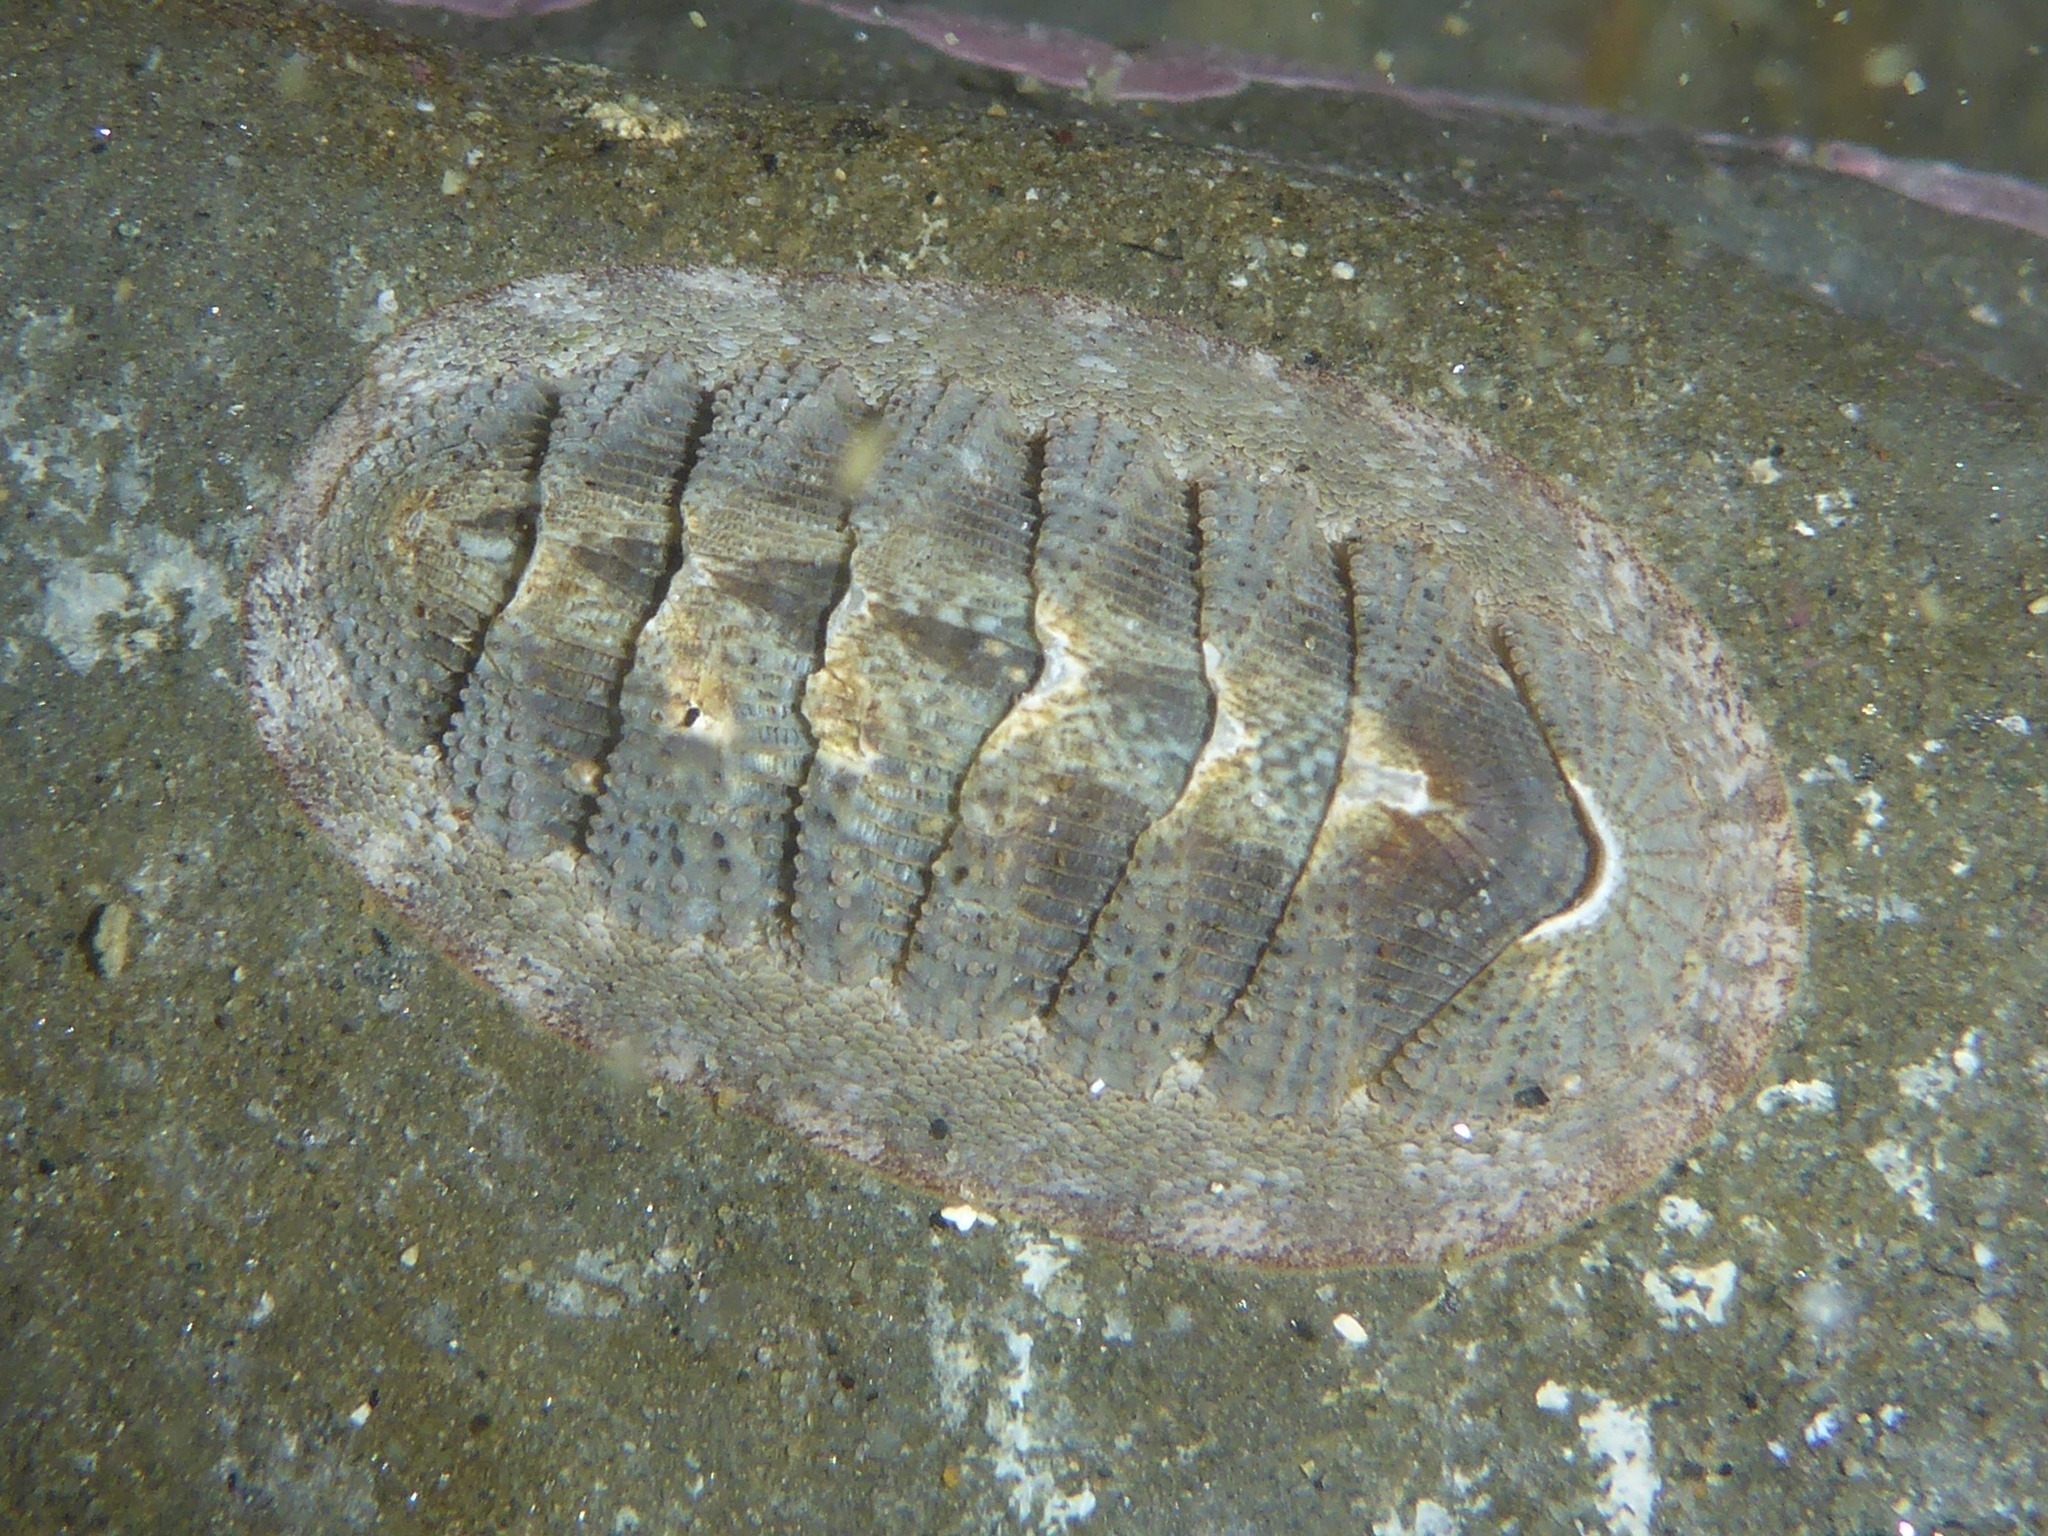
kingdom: Animalia
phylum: Mollusca
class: Polyplacophora
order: Chitonida
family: Ischnochitonidae
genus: Lepidozona
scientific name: Lepidozona cooperi
